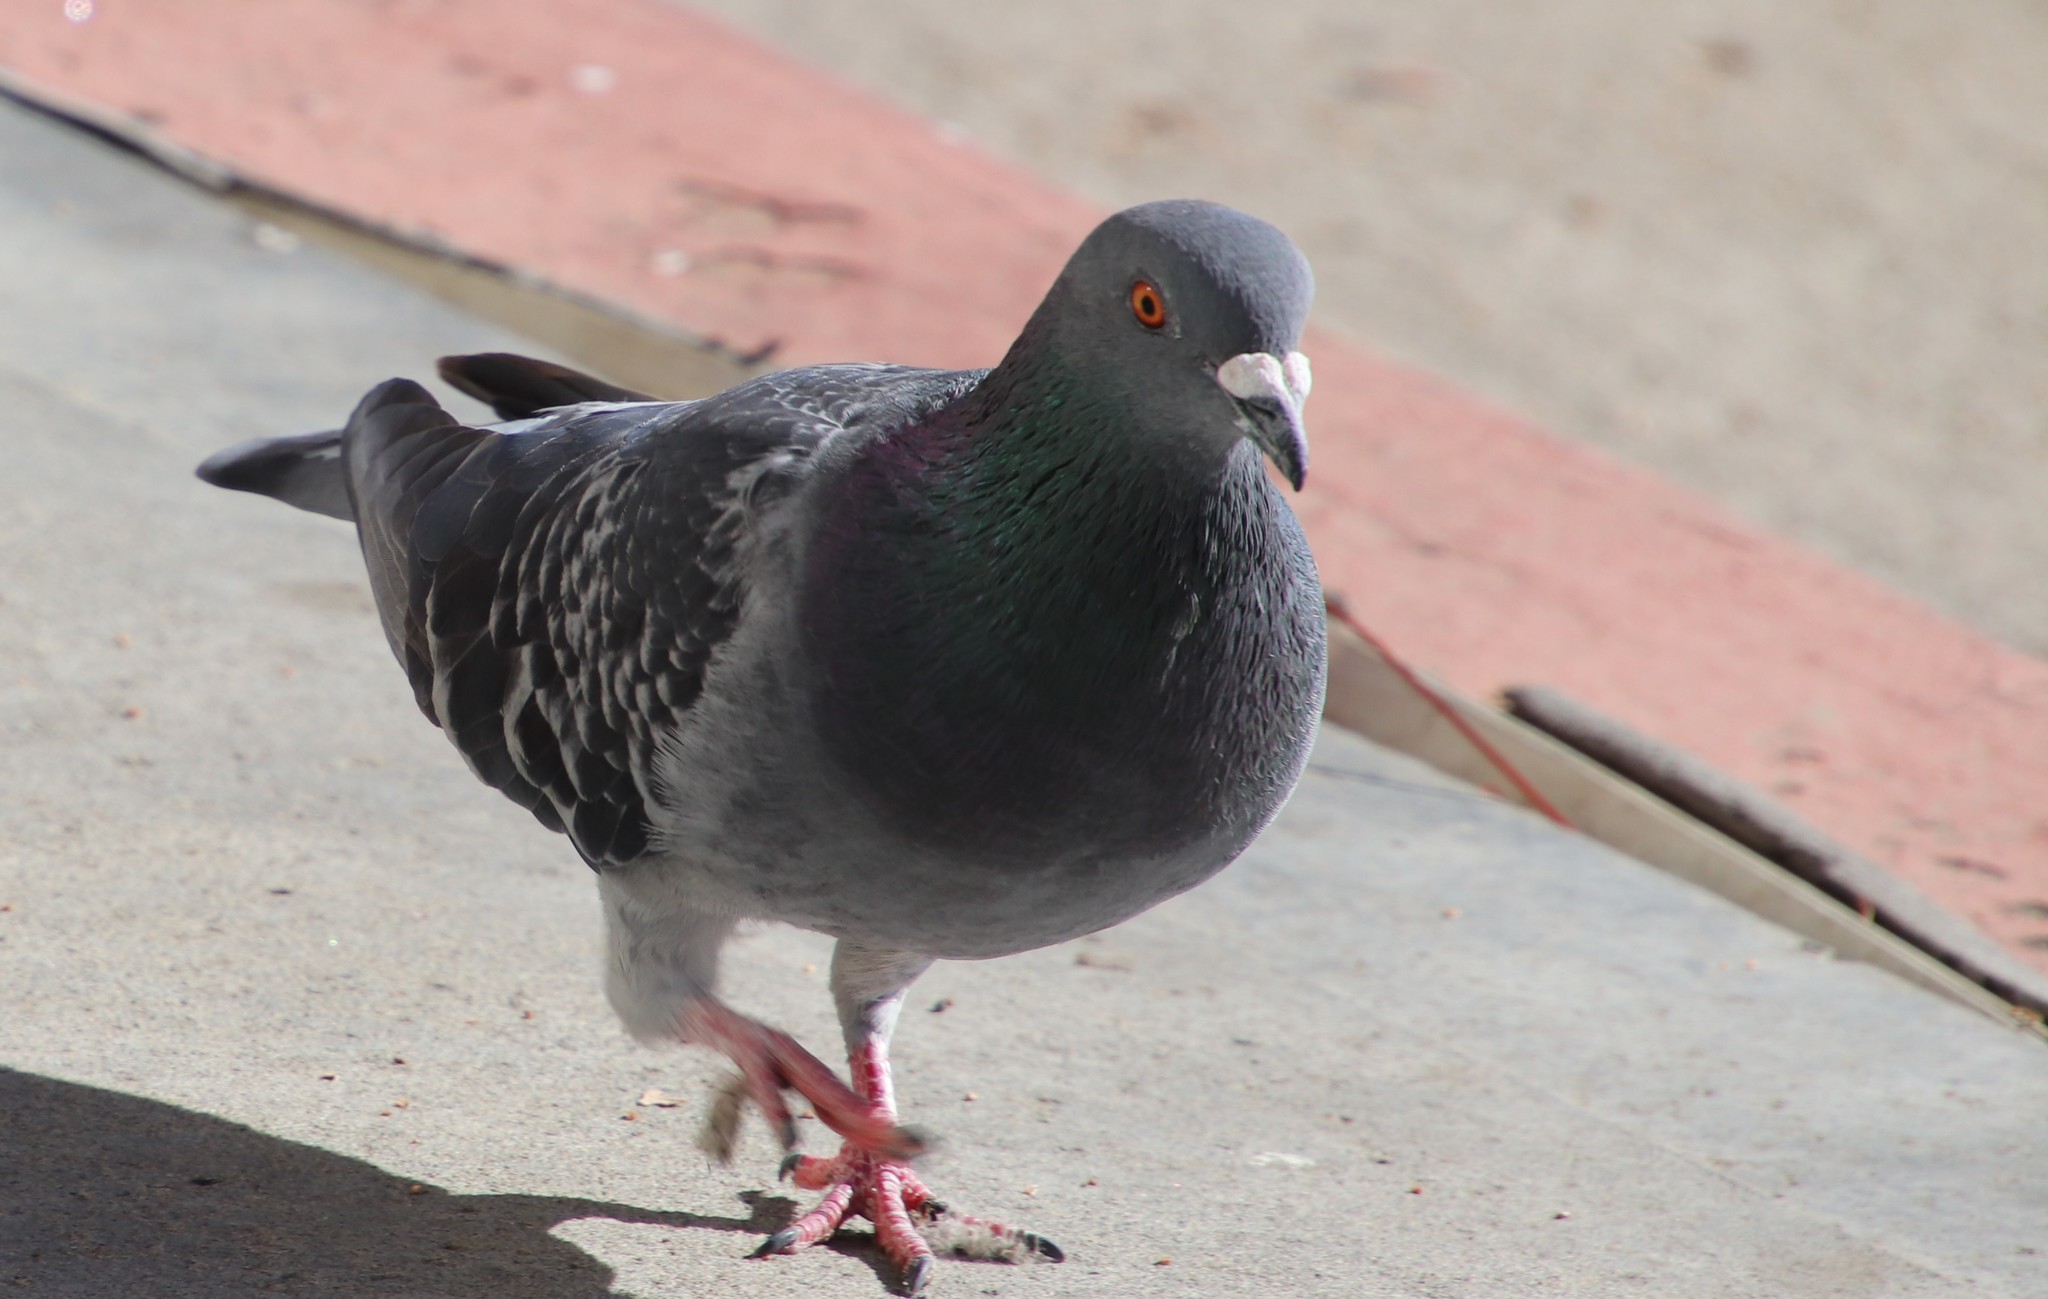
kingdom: Animalia
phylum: Chordata
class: Aves
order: Columbiformes
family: Columbidae
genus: Columba
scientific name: Columba livia
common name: Rock pigeon
